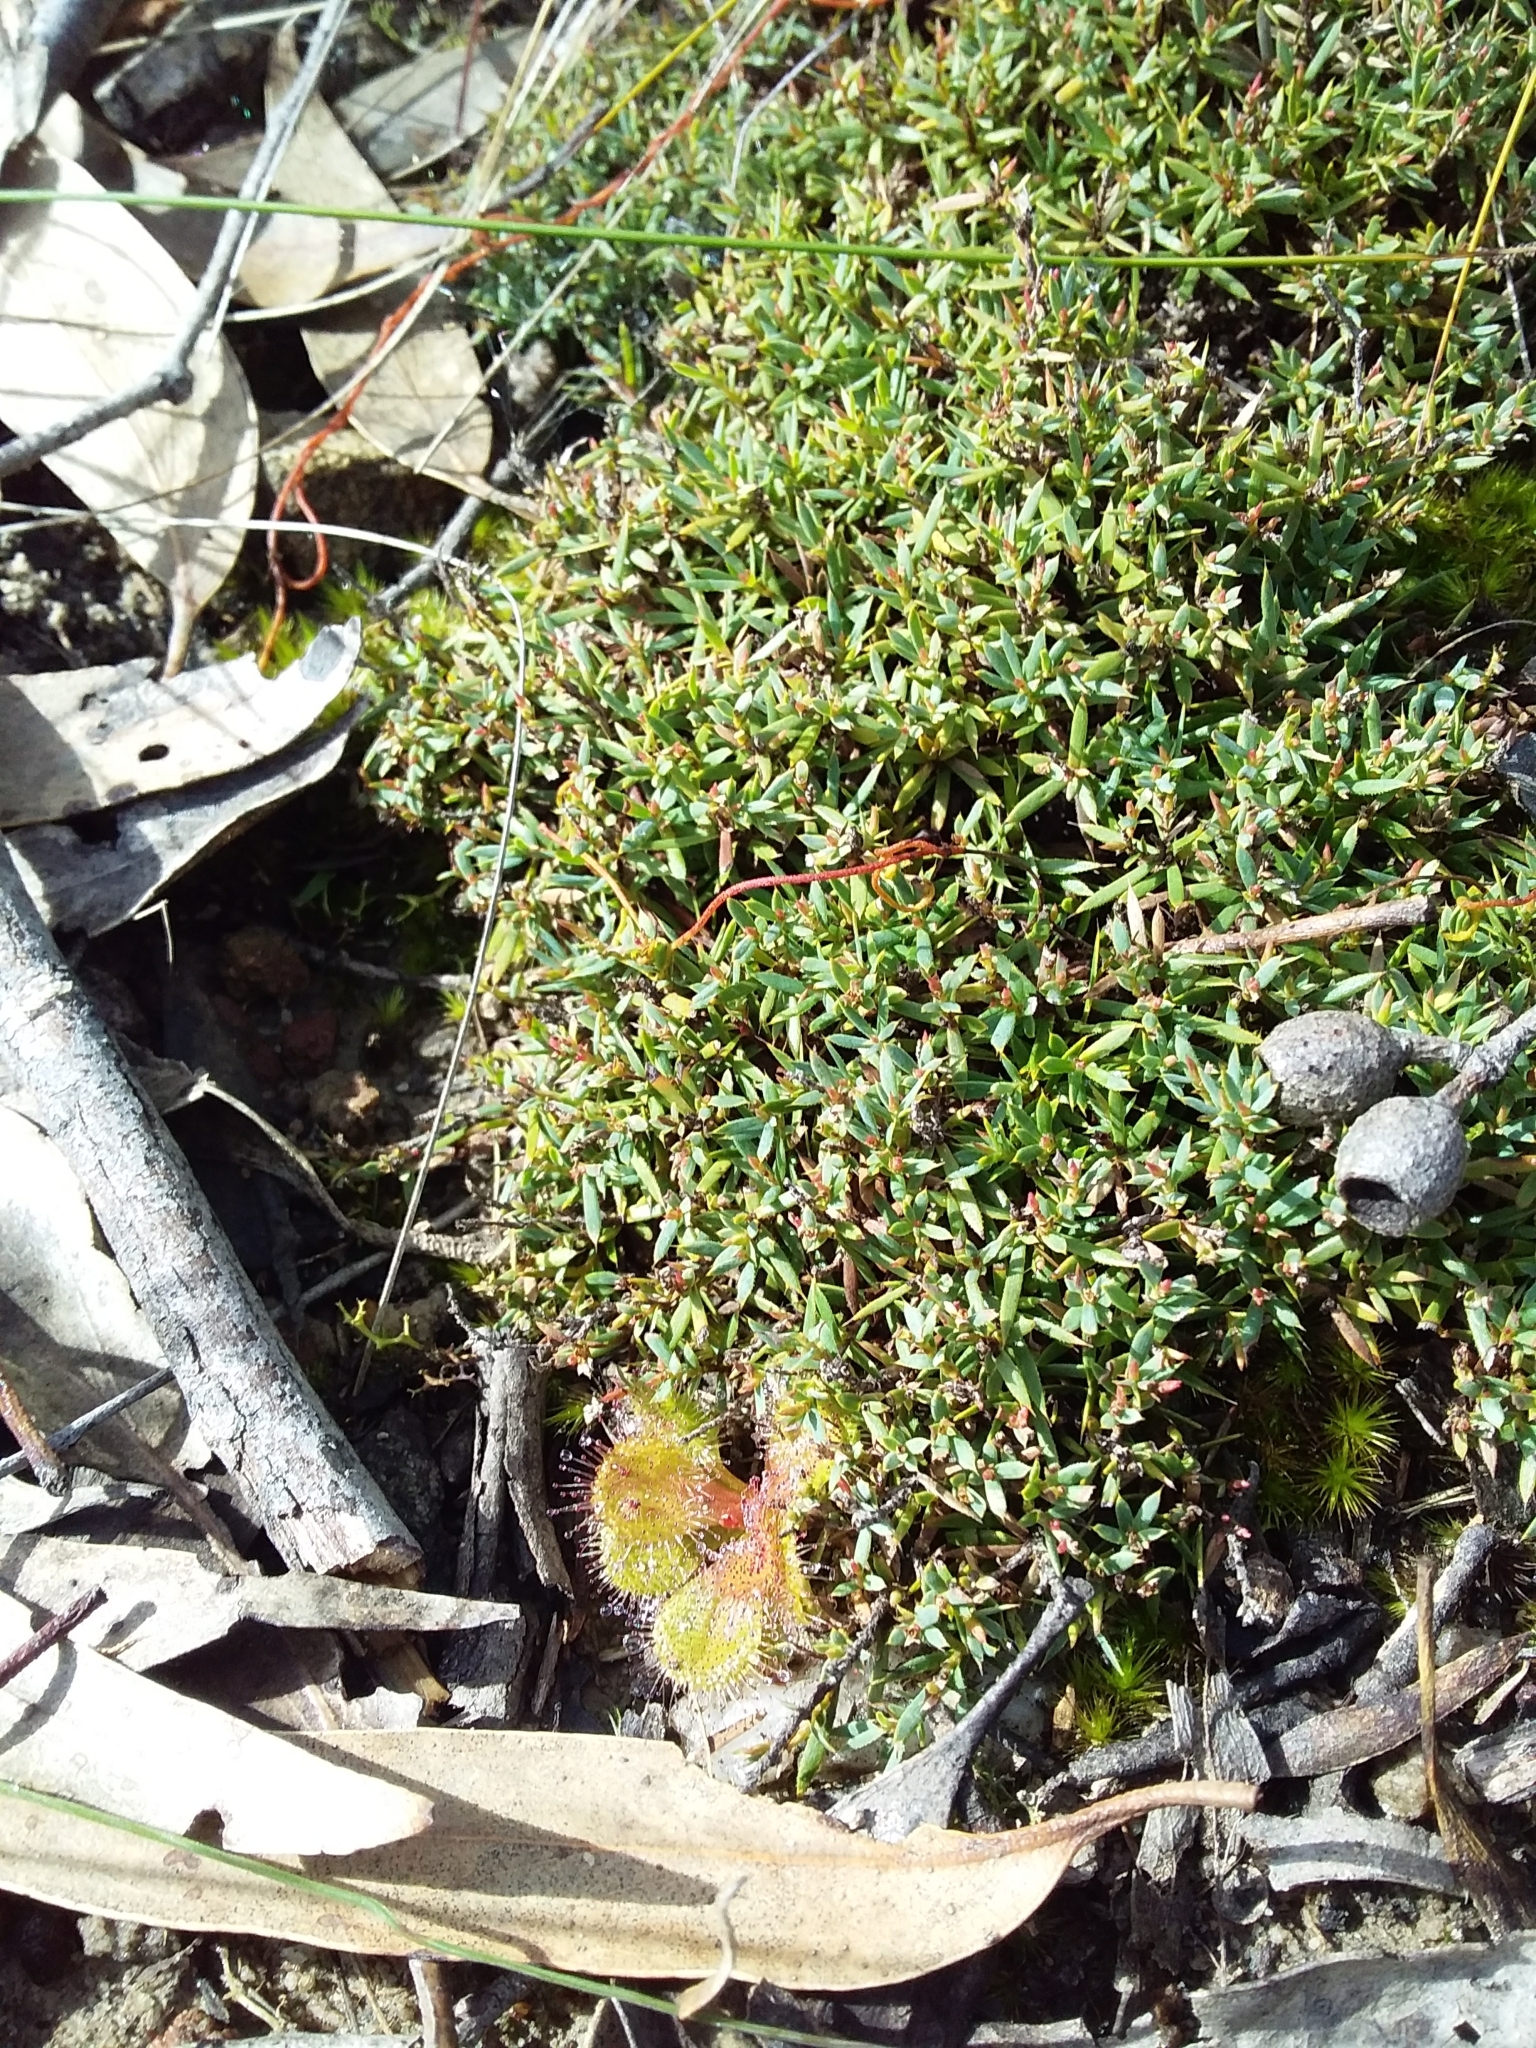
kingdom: Plantae
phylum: Tracheophyta
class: Magnoliopsida
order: Ericales
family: Ericaceae
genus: Styphelia
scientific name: Styphelia humifusa
